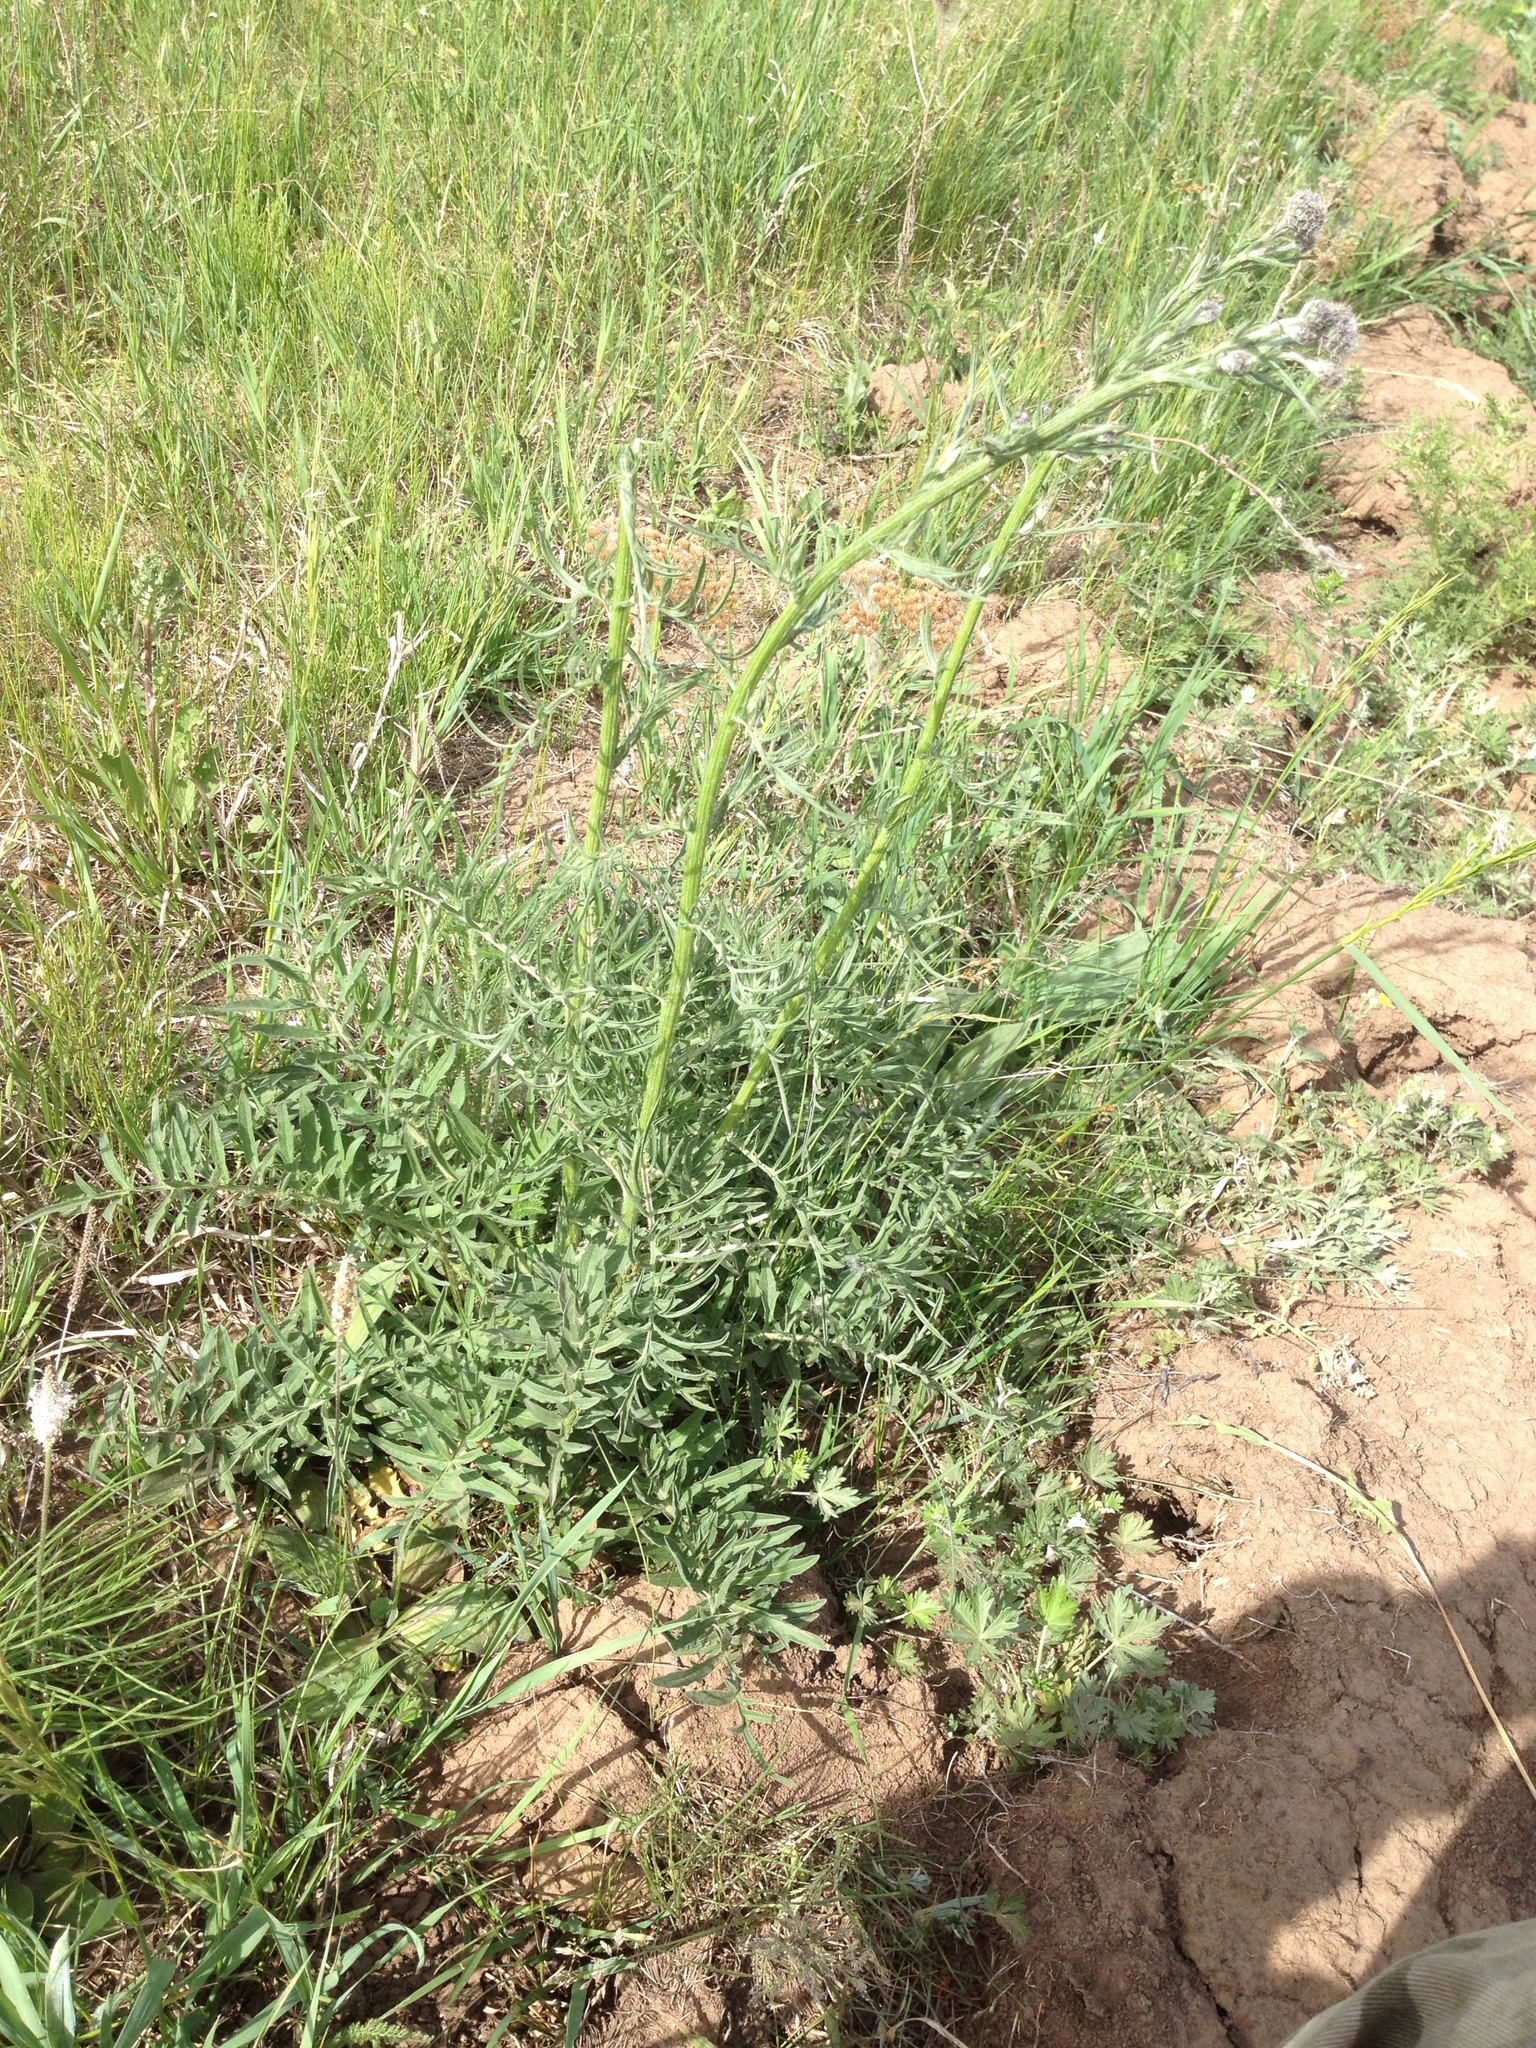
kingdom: Plantae
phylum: Tracheophyta
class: Magnoliopsida
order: Asterales
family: Asteraceae
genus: Centaurea
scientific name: Centaurea scabiosa
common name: Greater knapweed
